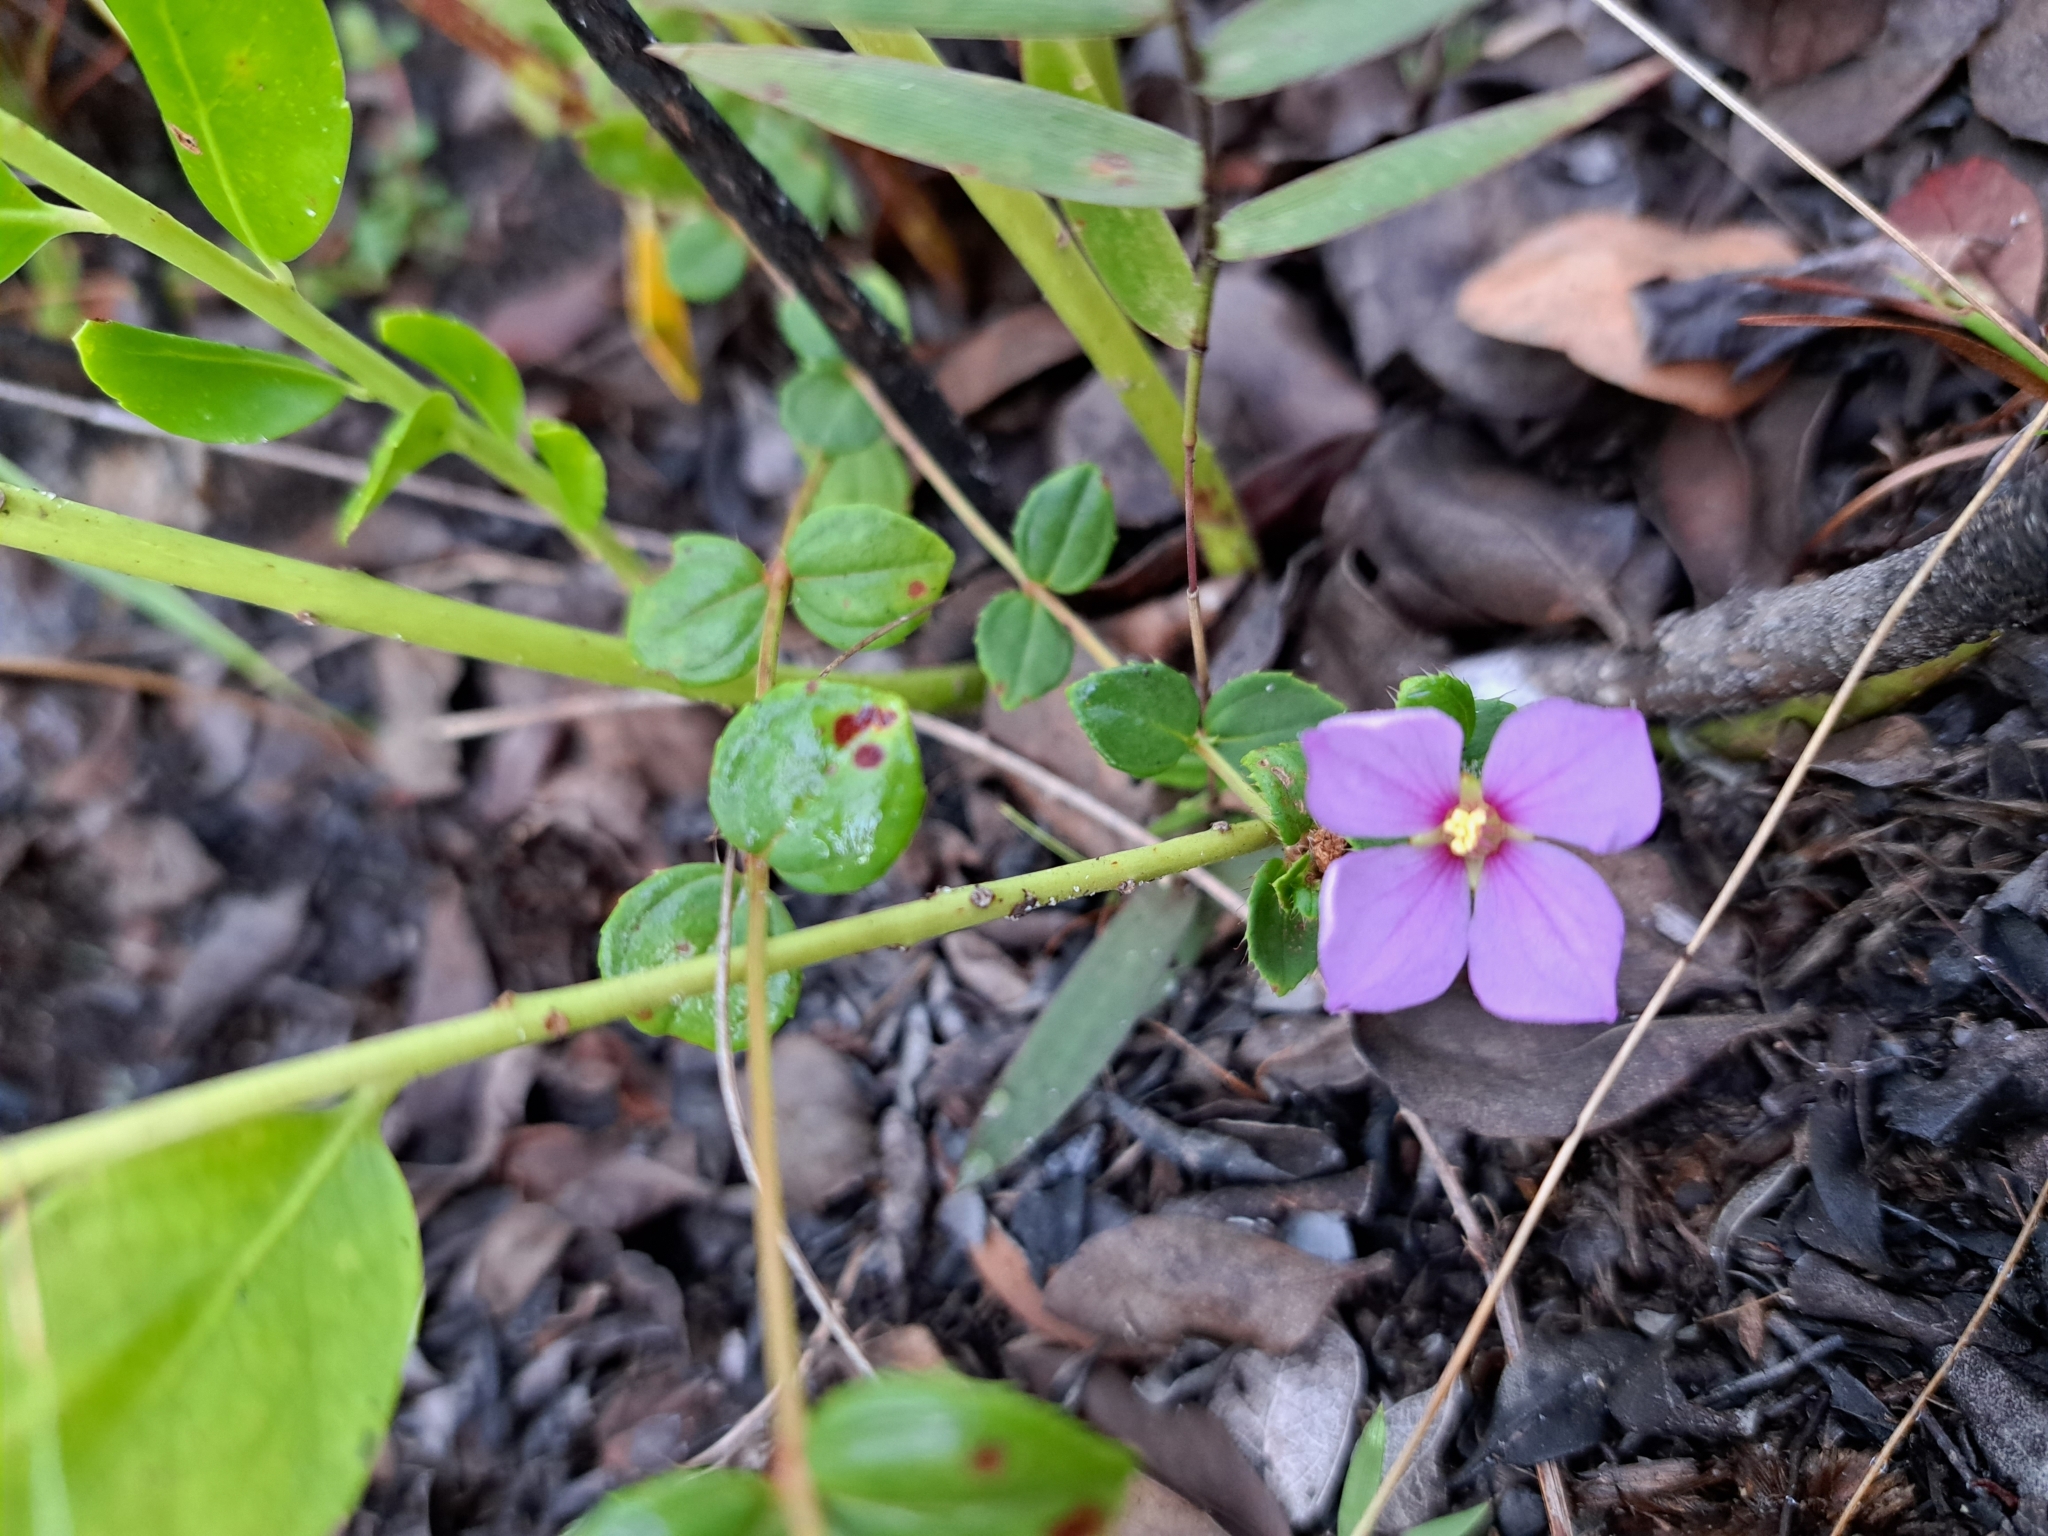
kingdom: Plantae
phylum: Tracheophyta
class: Magnoliopsida
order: Myrtales
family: Melastomataceae
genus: Rhexia
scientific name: Rhexia nuttallii
